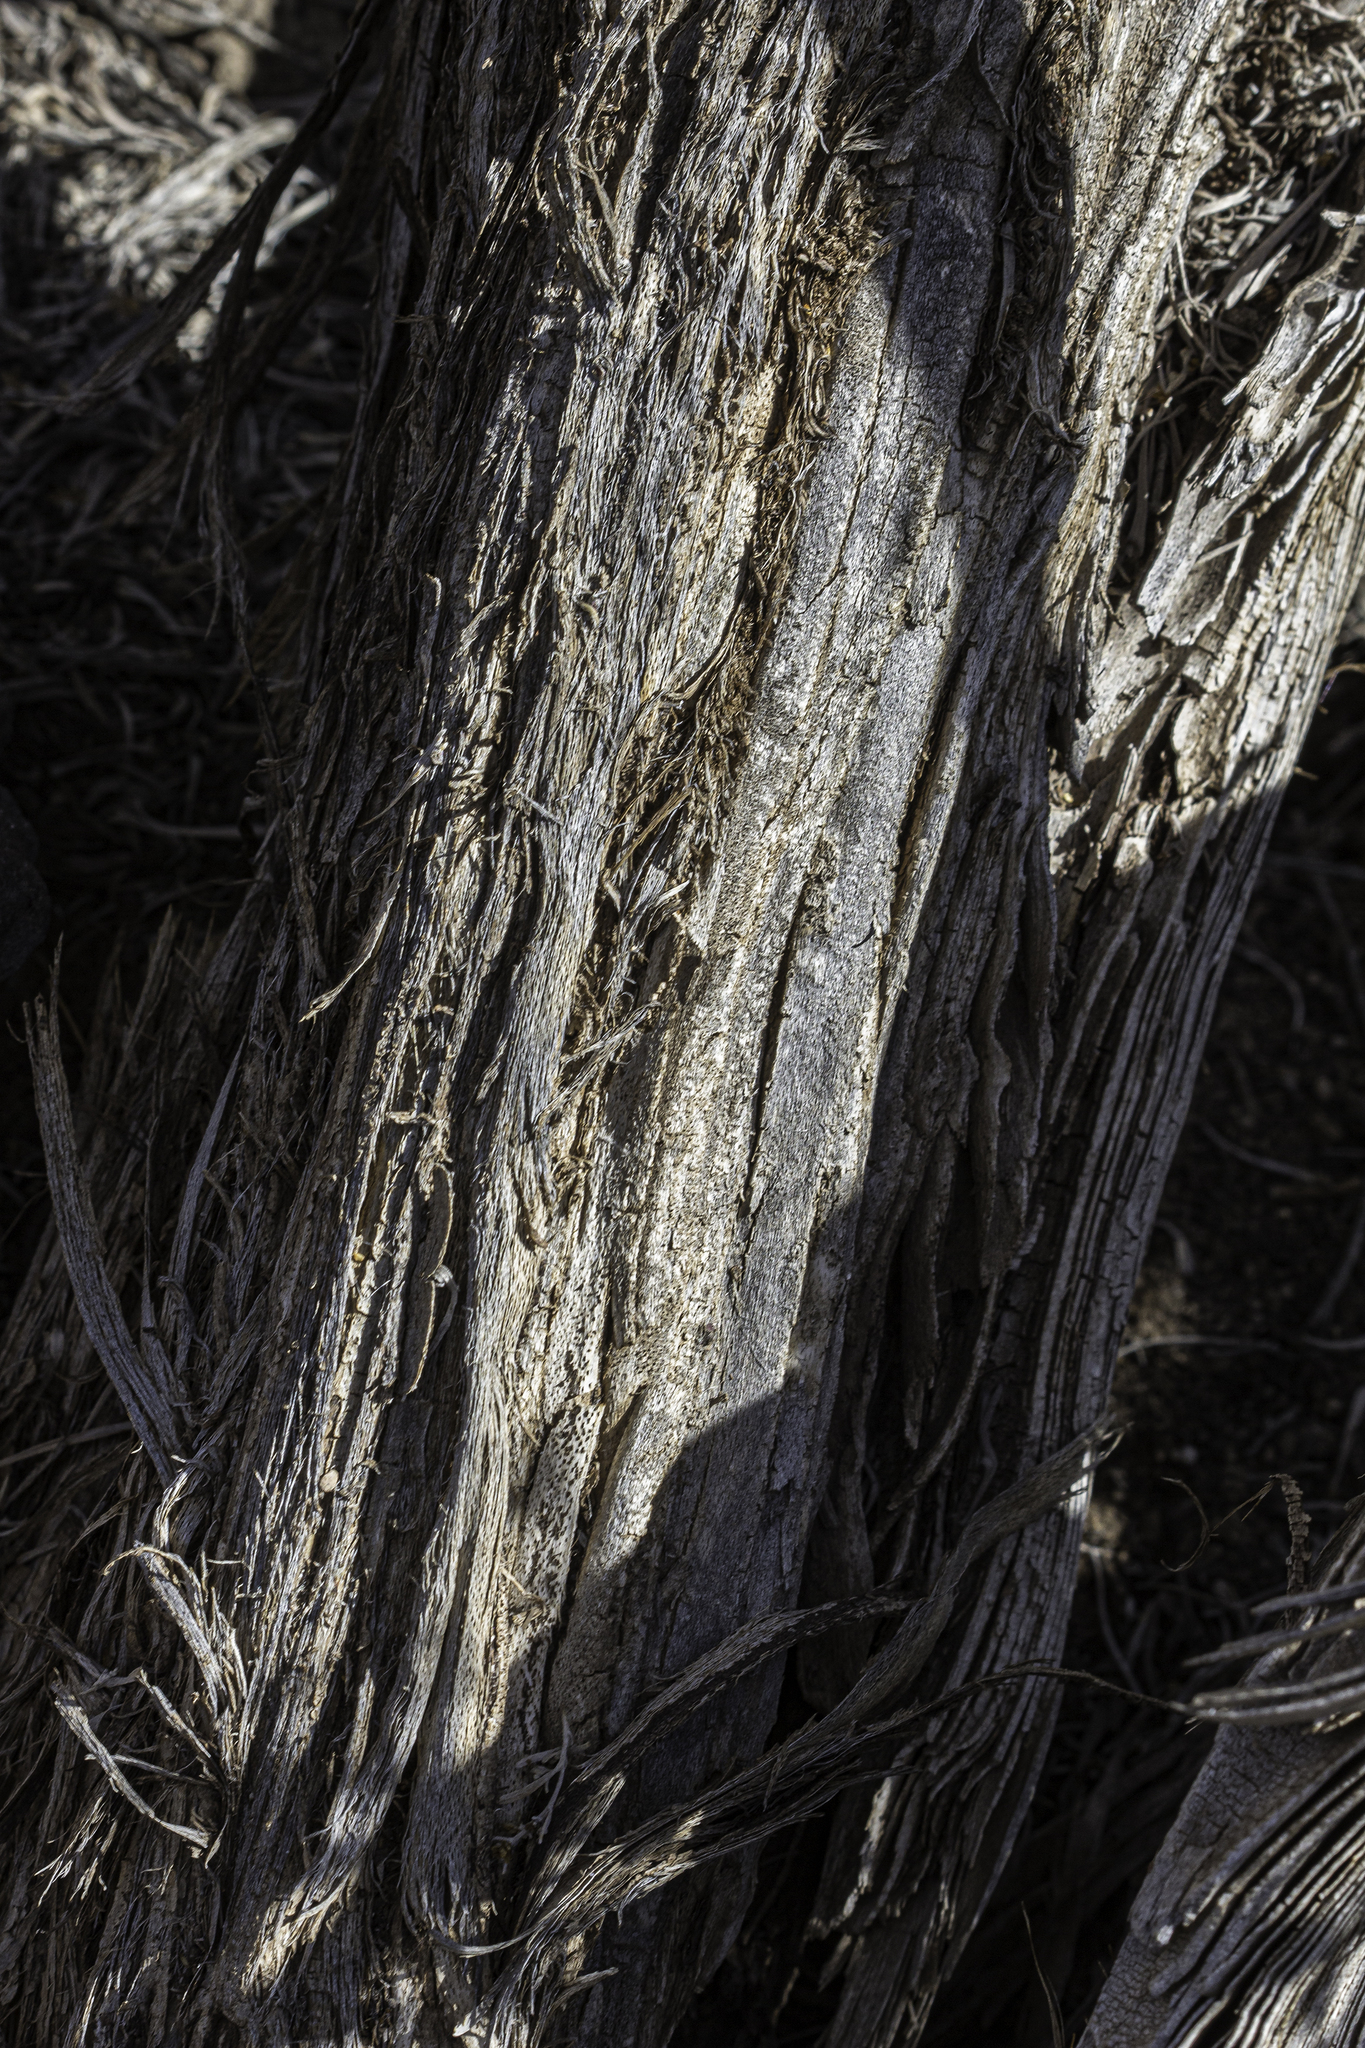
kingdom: Plantae
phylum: Tracheophyta
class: Magnoliopsida
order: Asterales
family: Asteraceae
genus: Artemisia
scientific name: Artemisia tridentata
